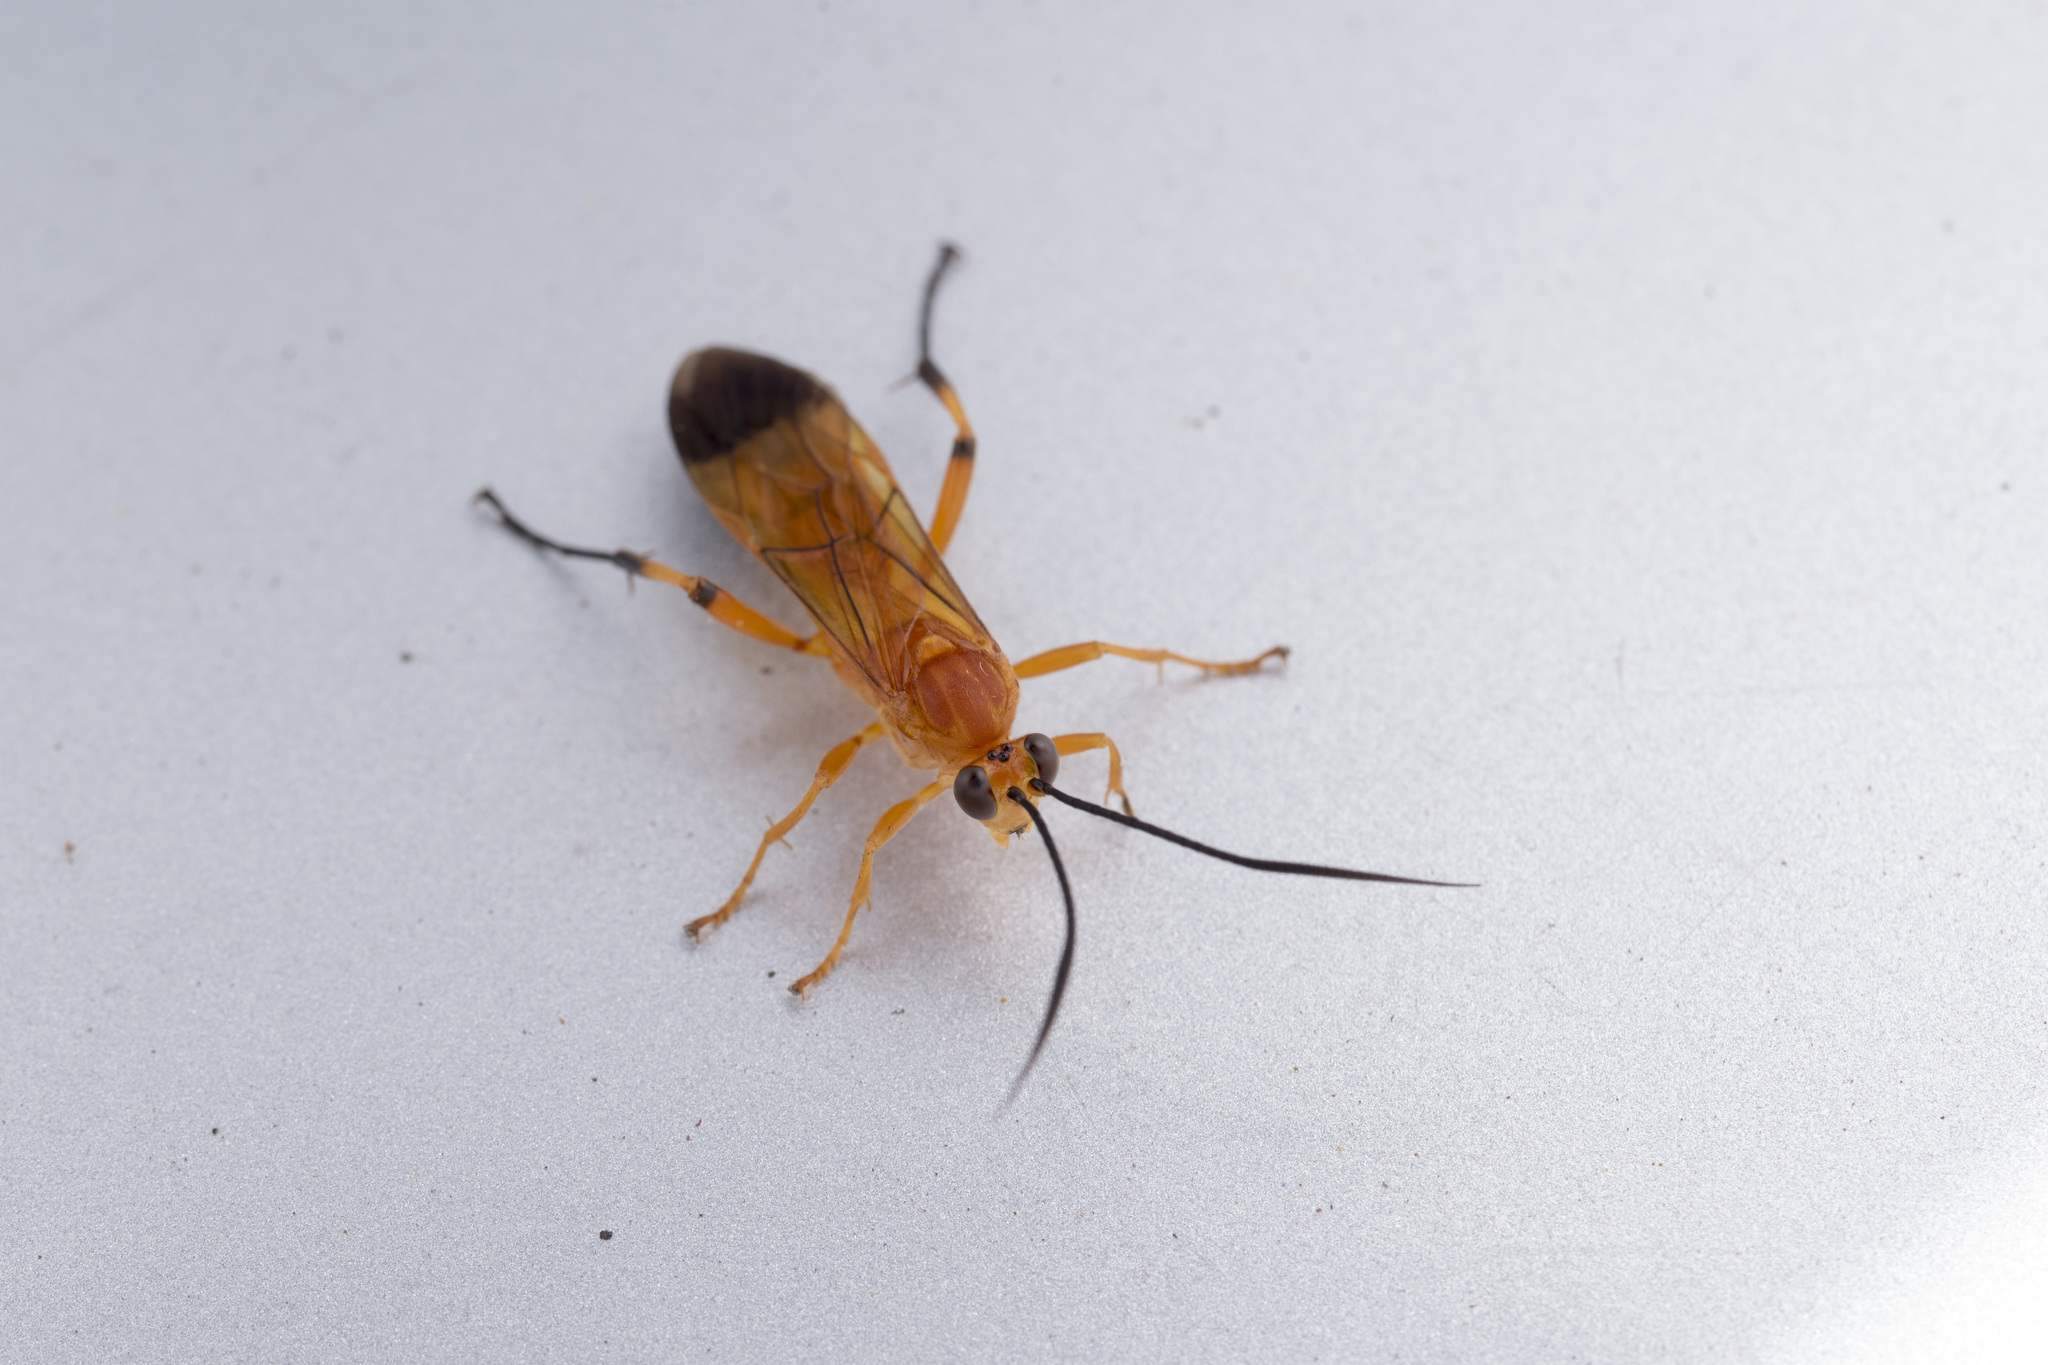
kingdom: Animalia
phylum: Arthropoda
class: Insecta
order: Hymenoptera
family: Ichneumonidae
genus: Dimaetha
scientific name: Dimaetha tibialis
